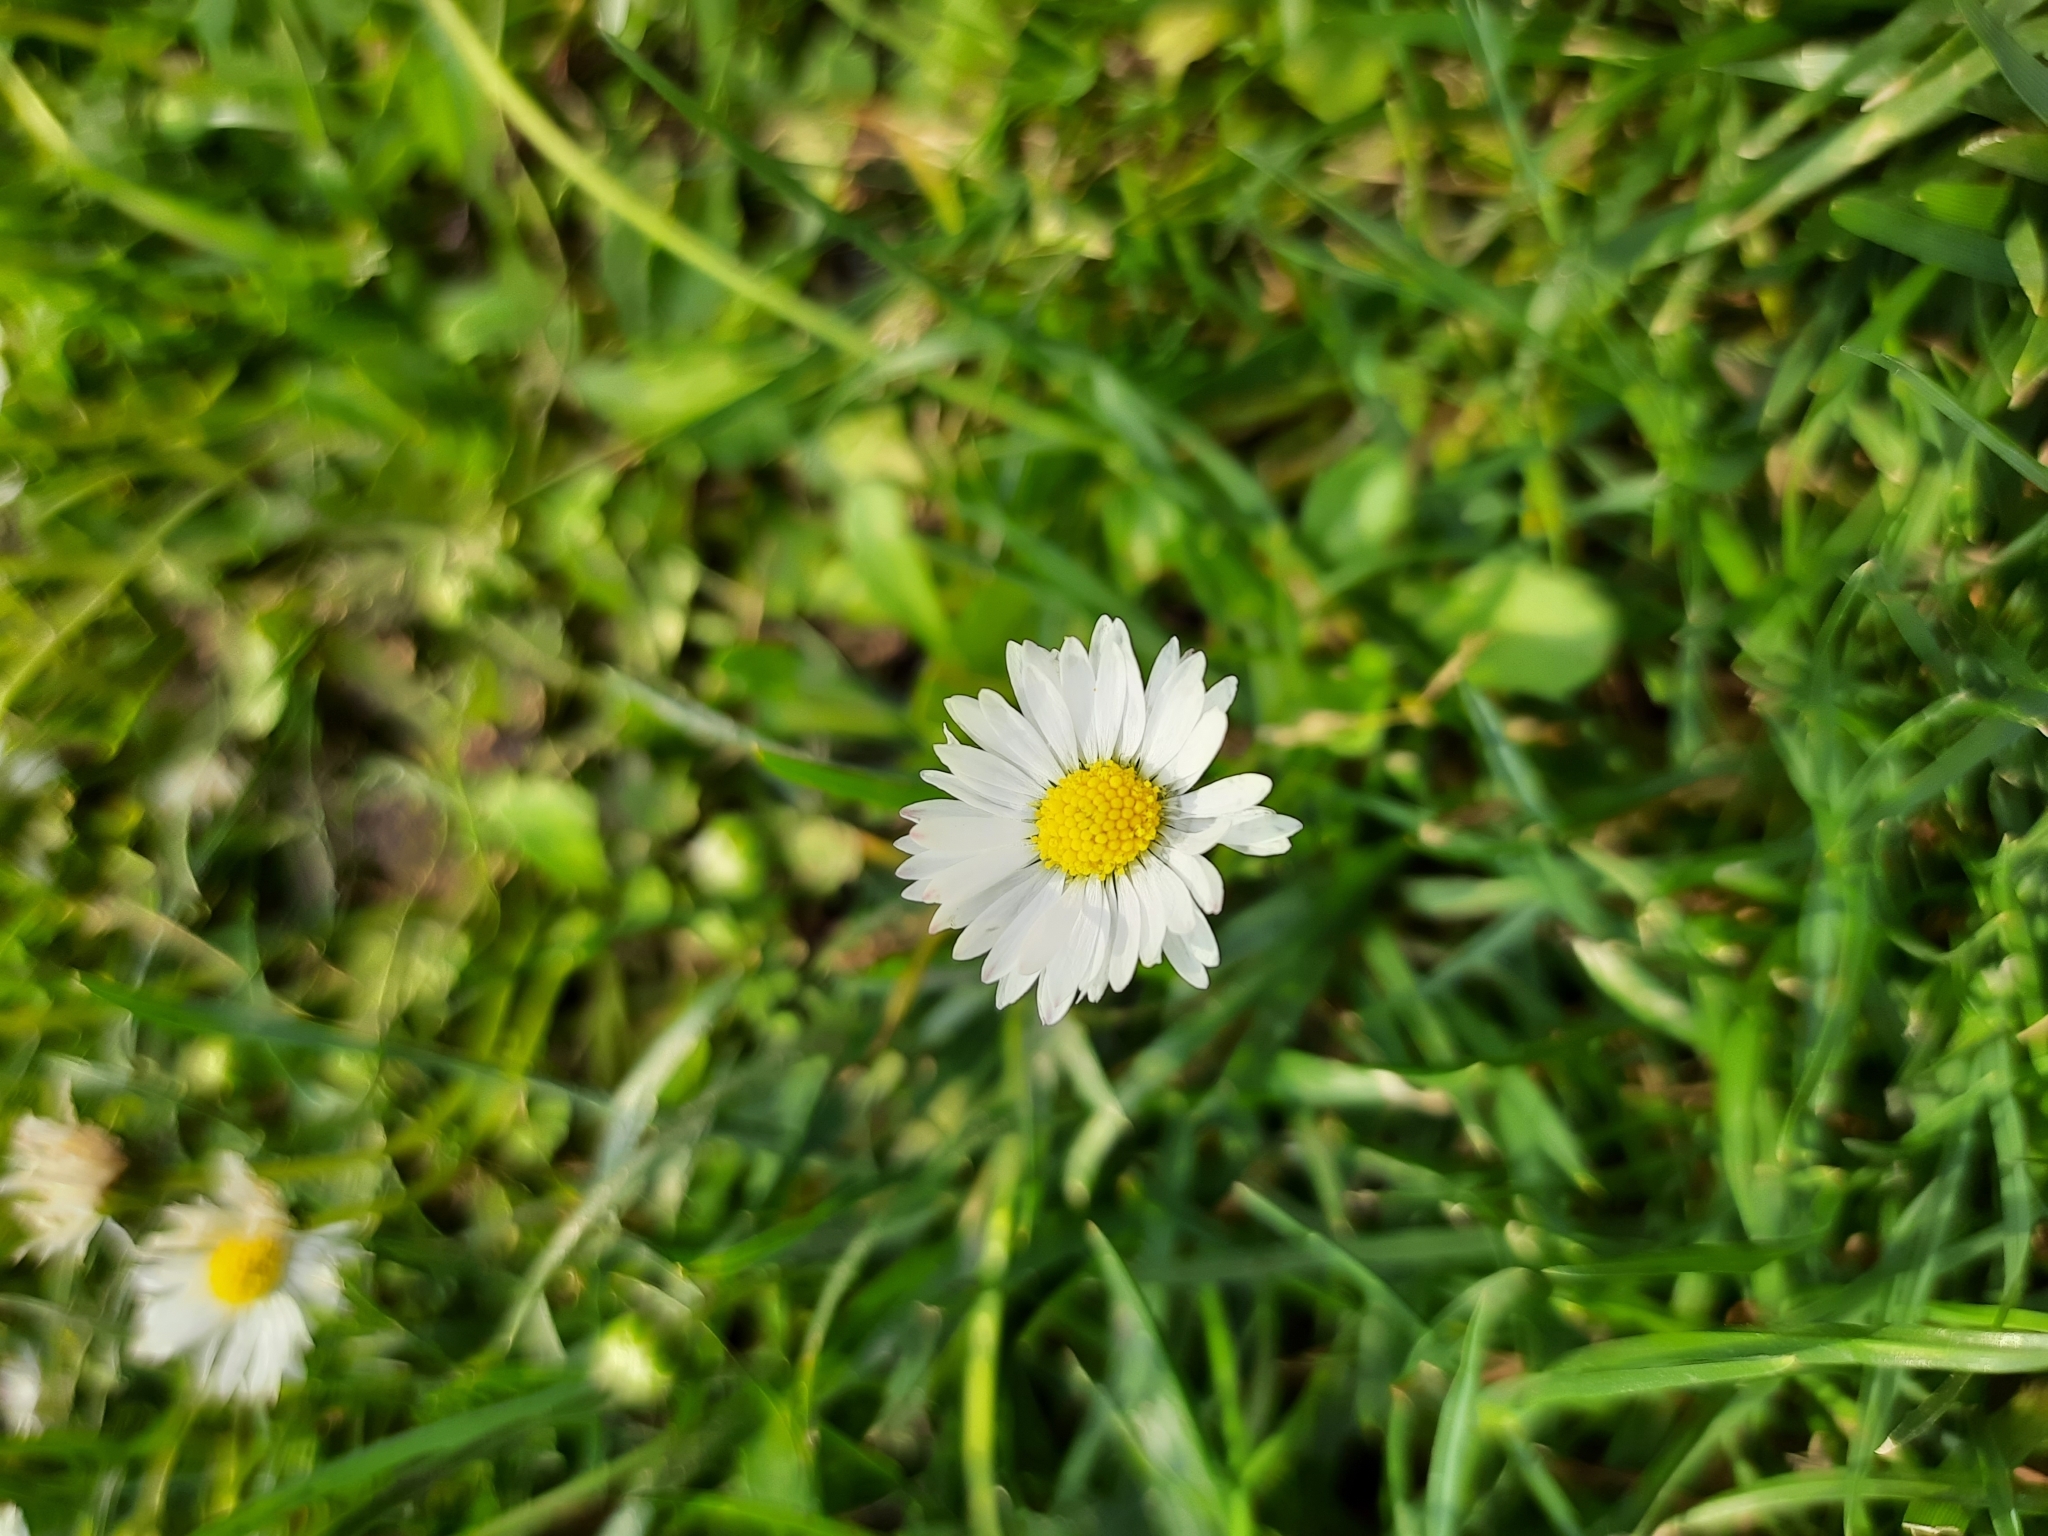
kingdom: Plantae
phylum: Tracheophyta
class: Magnoliopsida
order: Asterales
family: Asteraceae
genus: Bellis
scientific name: Bellis perennis
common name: Lawndaisy
